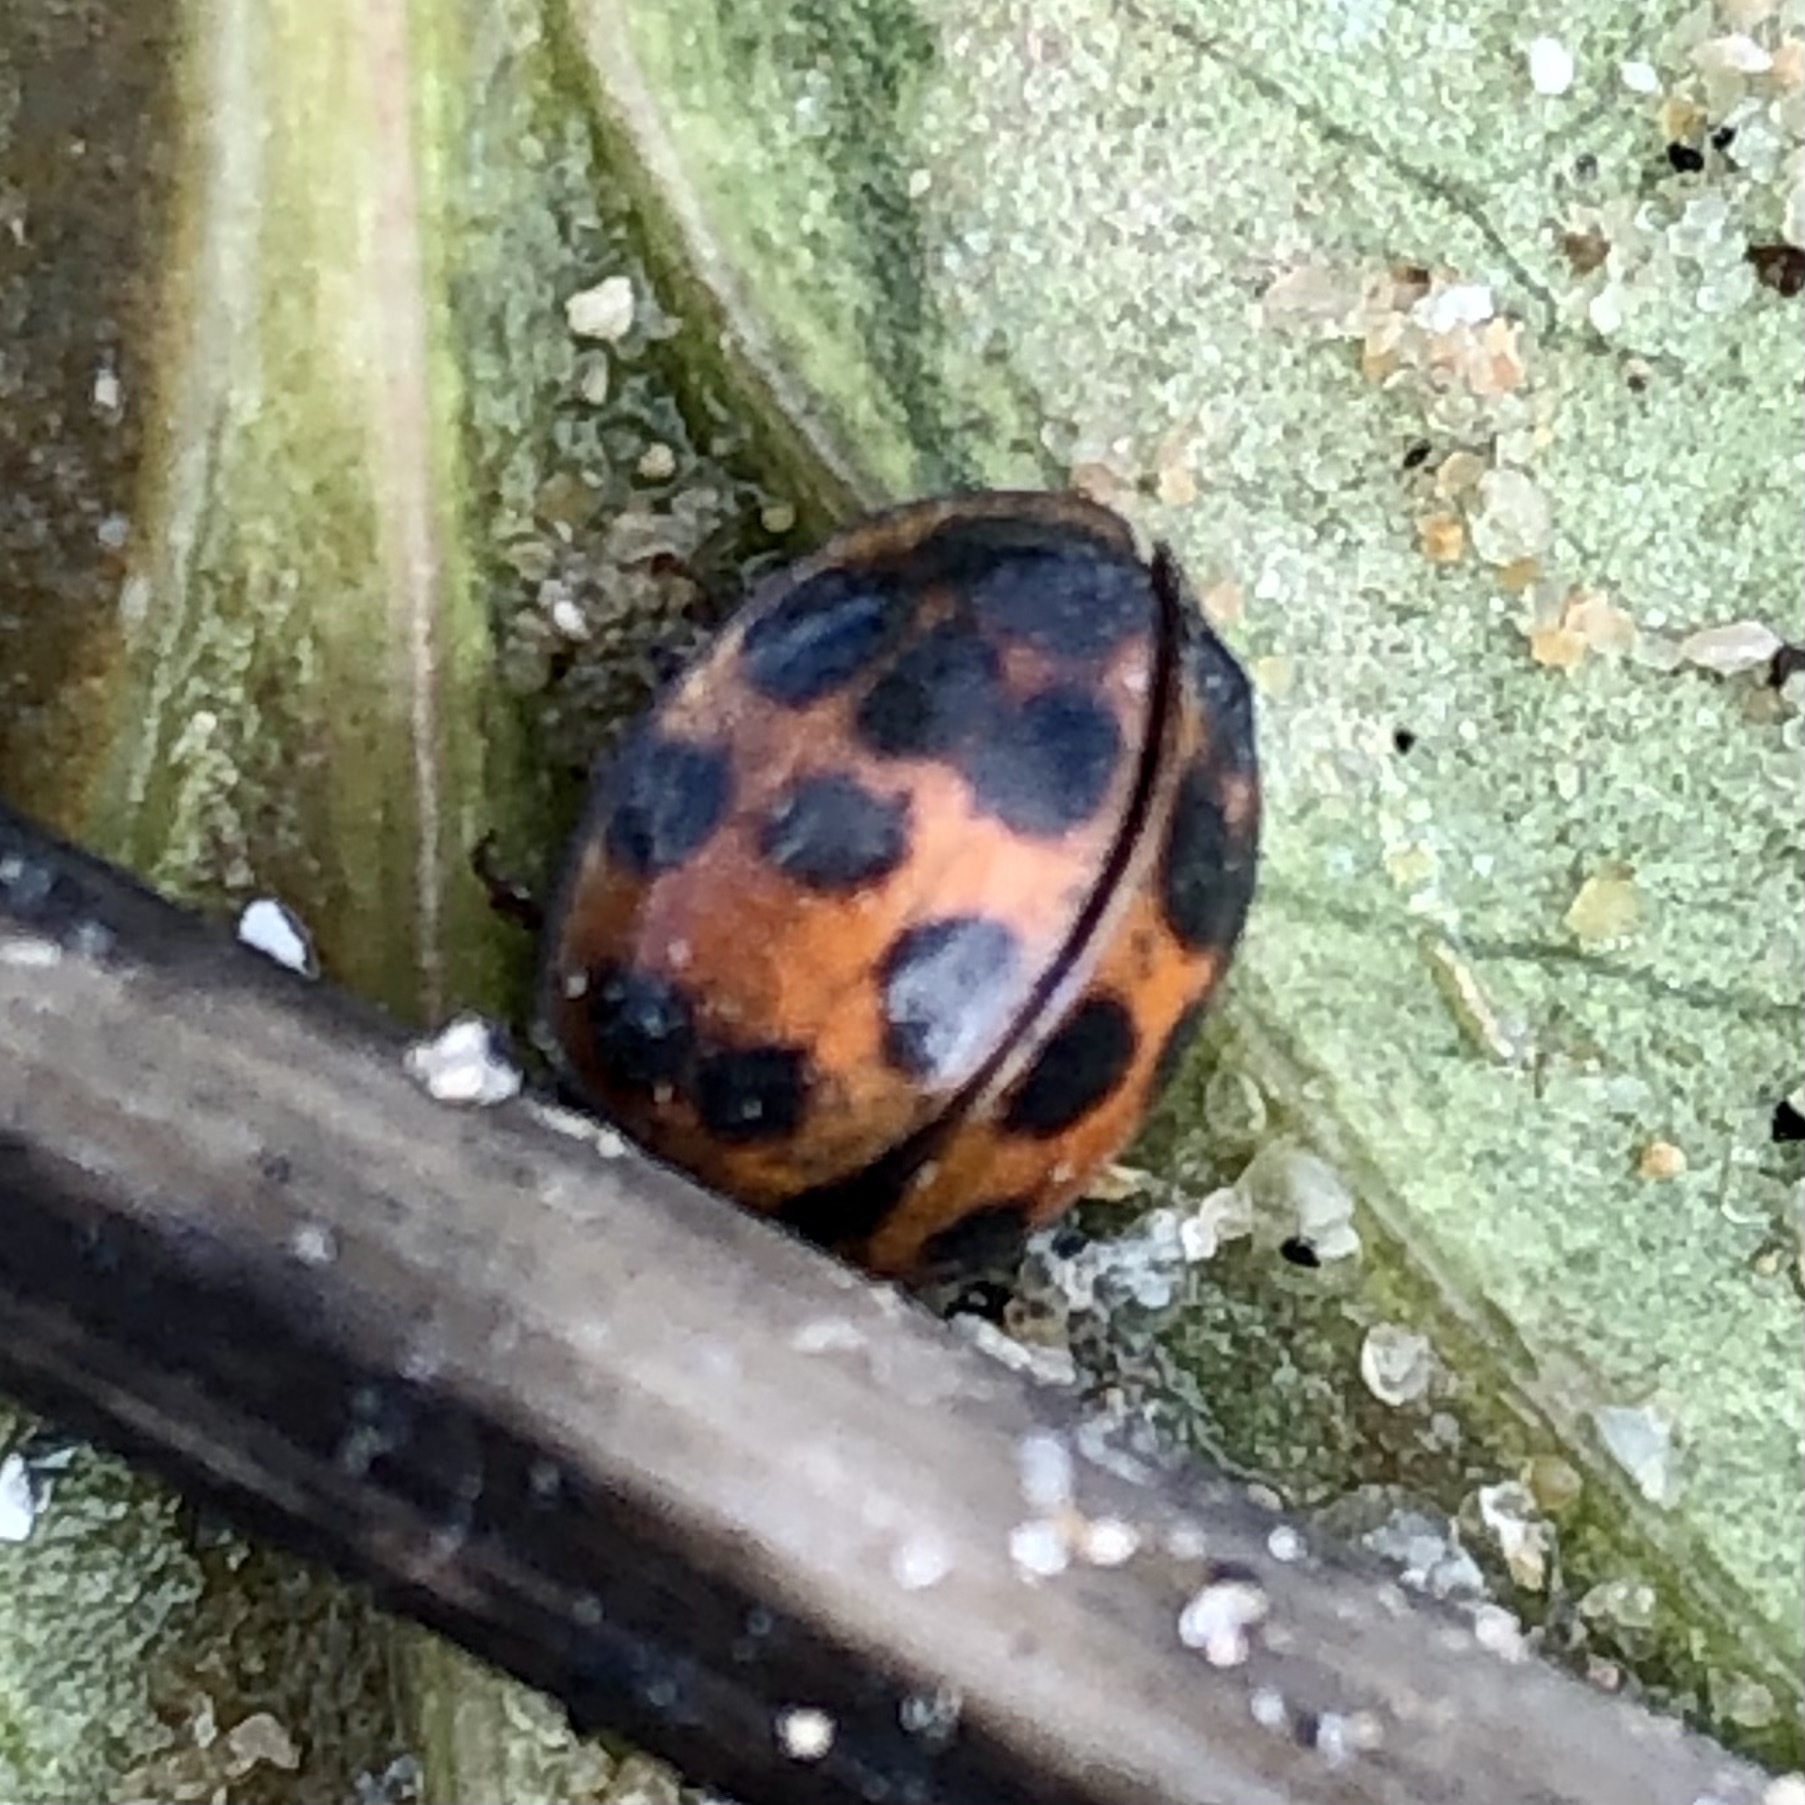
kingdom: Animalia
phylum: Arthropoda
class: Insecta
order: Coleoptera
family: Coccinellidae
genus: Harmonia
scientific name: Harmonia axyridis
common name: Harlequin ladybird
